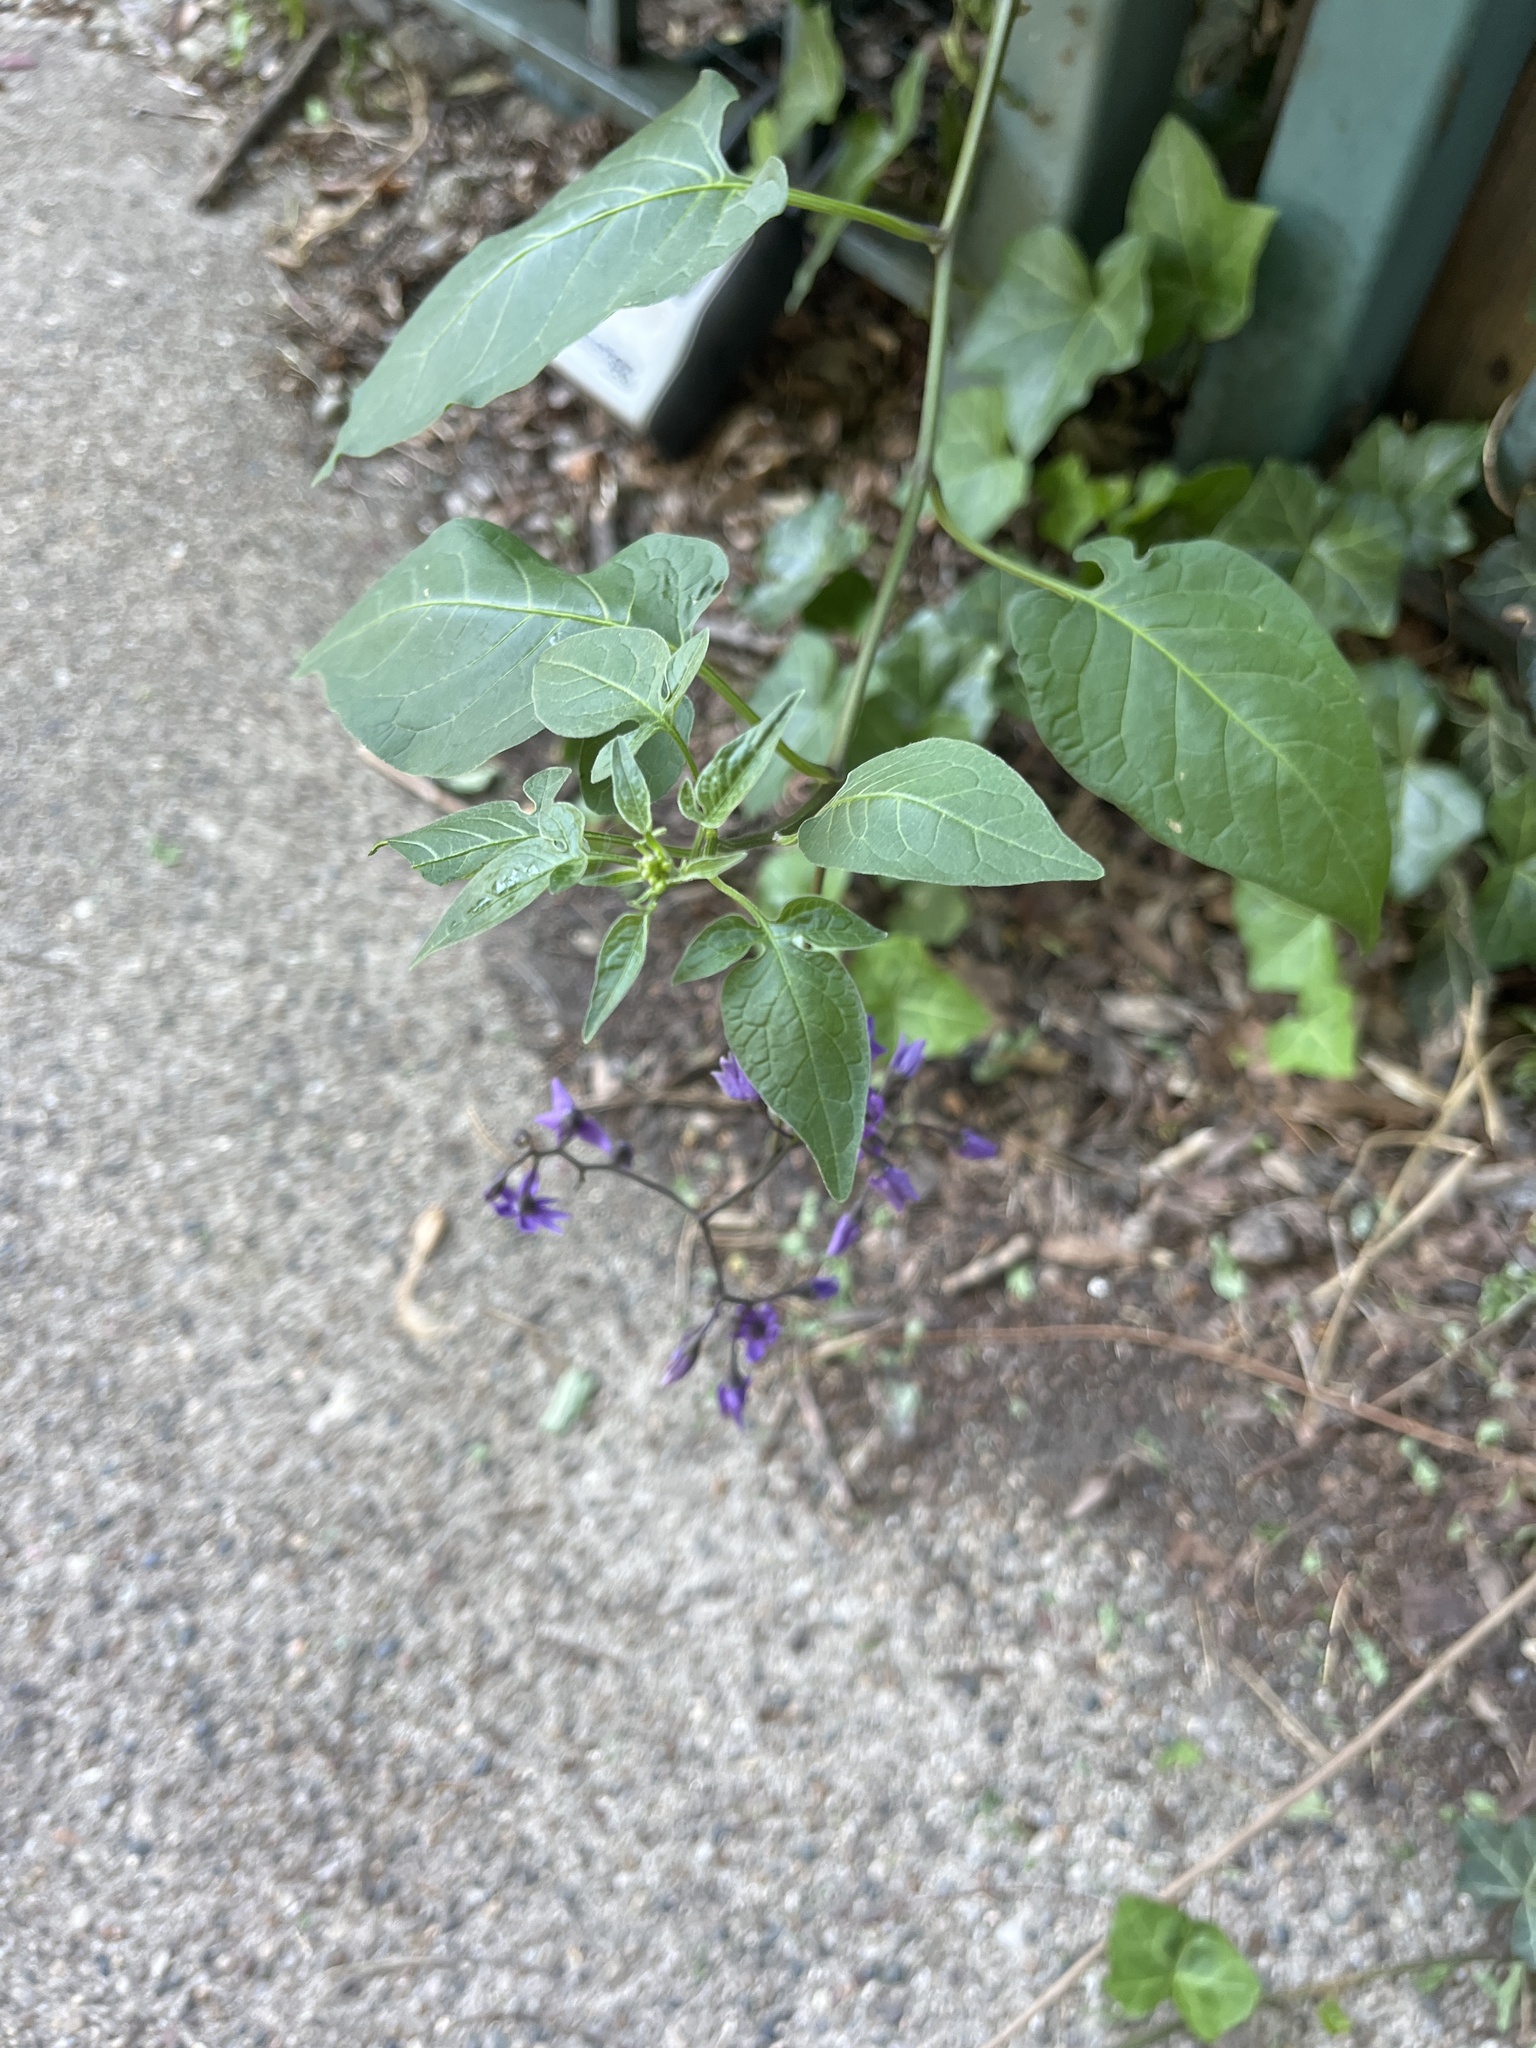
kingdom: Plantae
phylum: Tracheophyta
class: Magnoliopsida
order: Solanales
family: Solanaceae
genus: Solanum
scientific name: Solanum dulcamara
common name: Climbing nightshade
